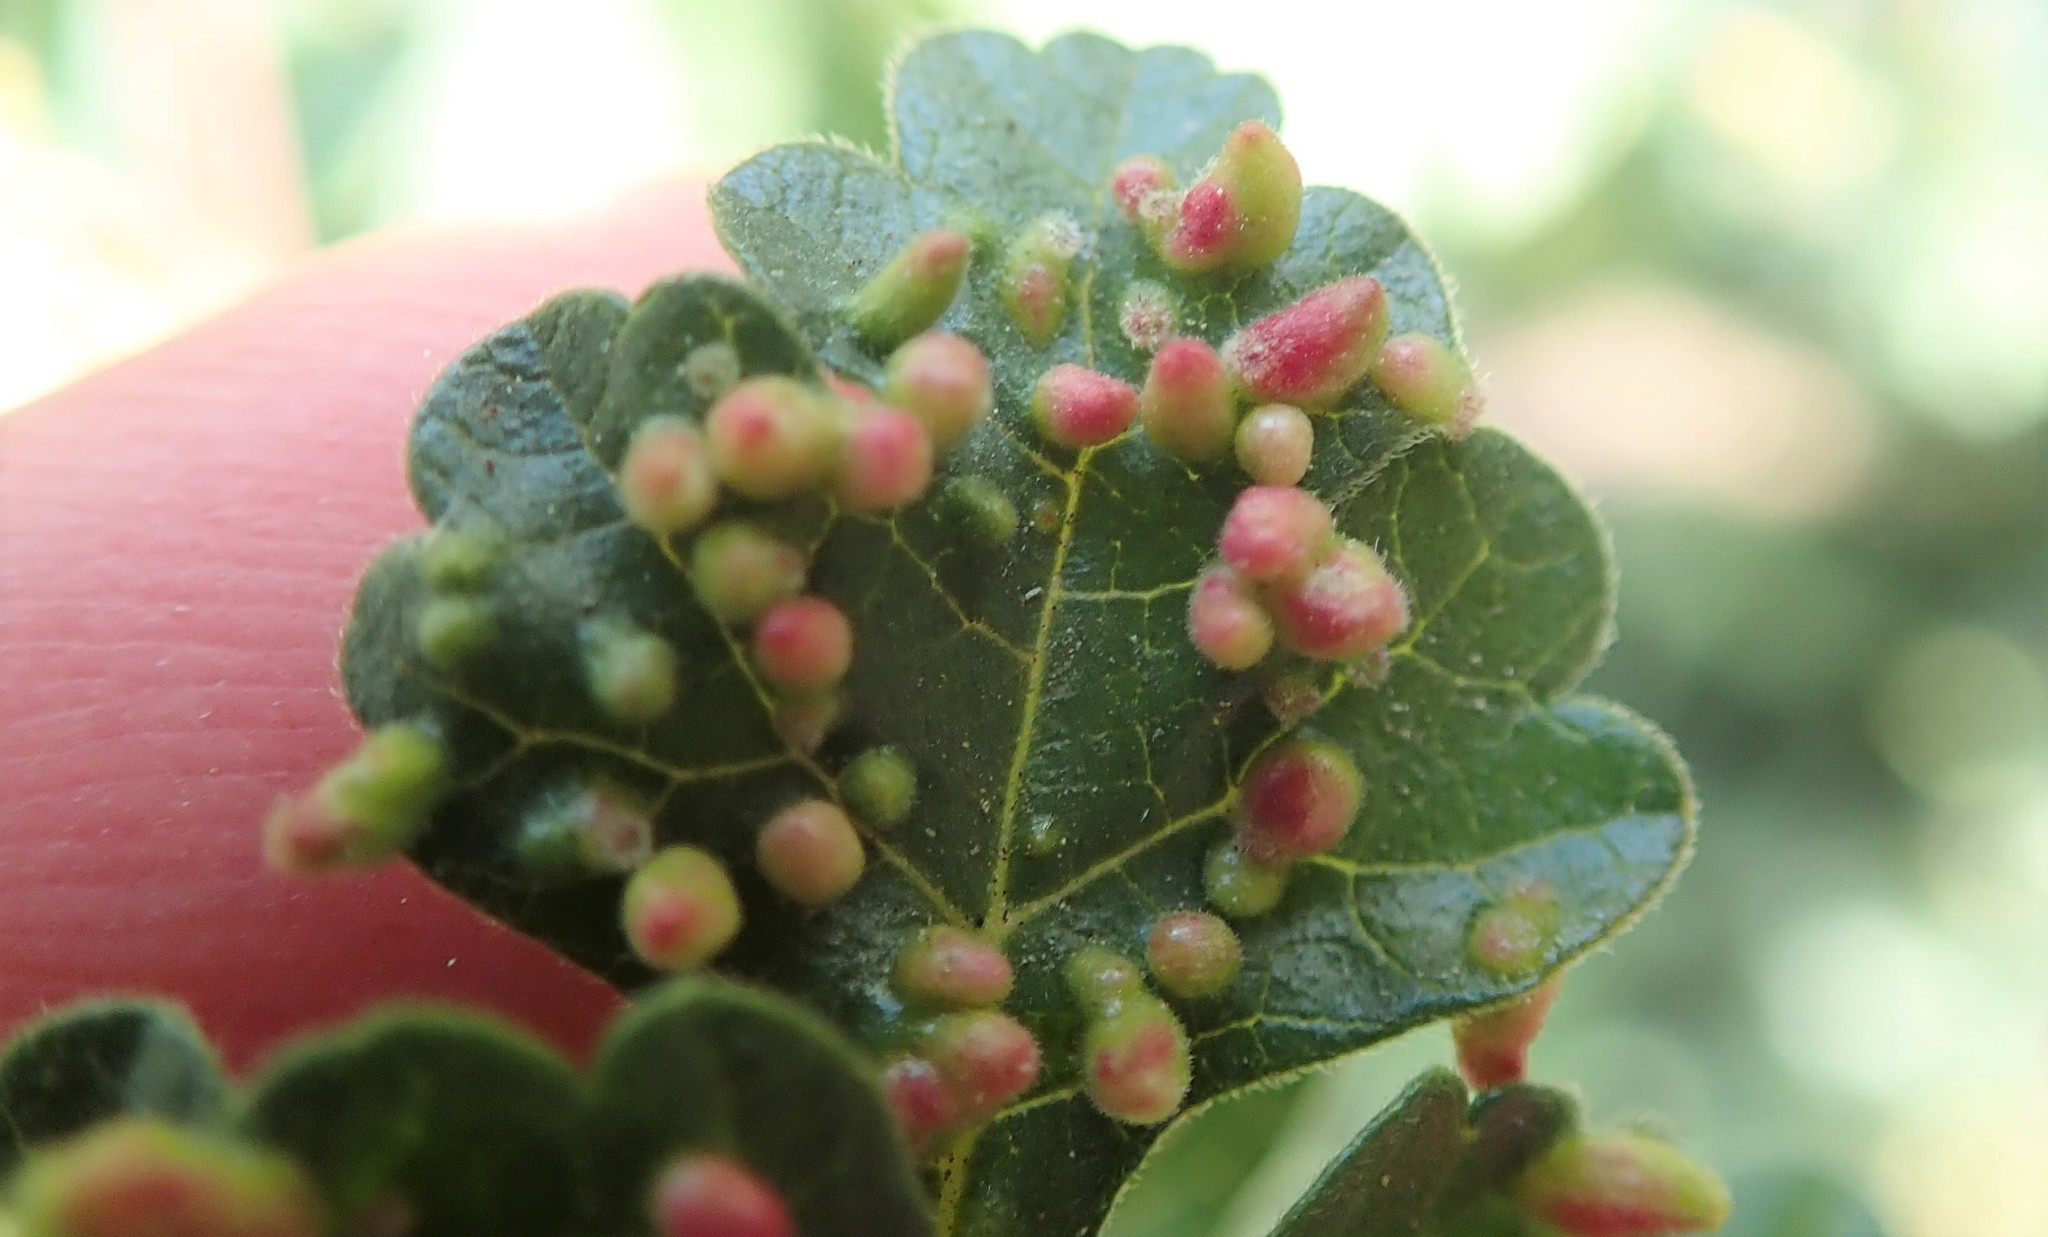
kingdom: Animalia
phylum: Arthropoda
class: Arachnida
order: Trombidiformes
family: Eriophyidae
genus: Aculops
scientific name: Aculops
